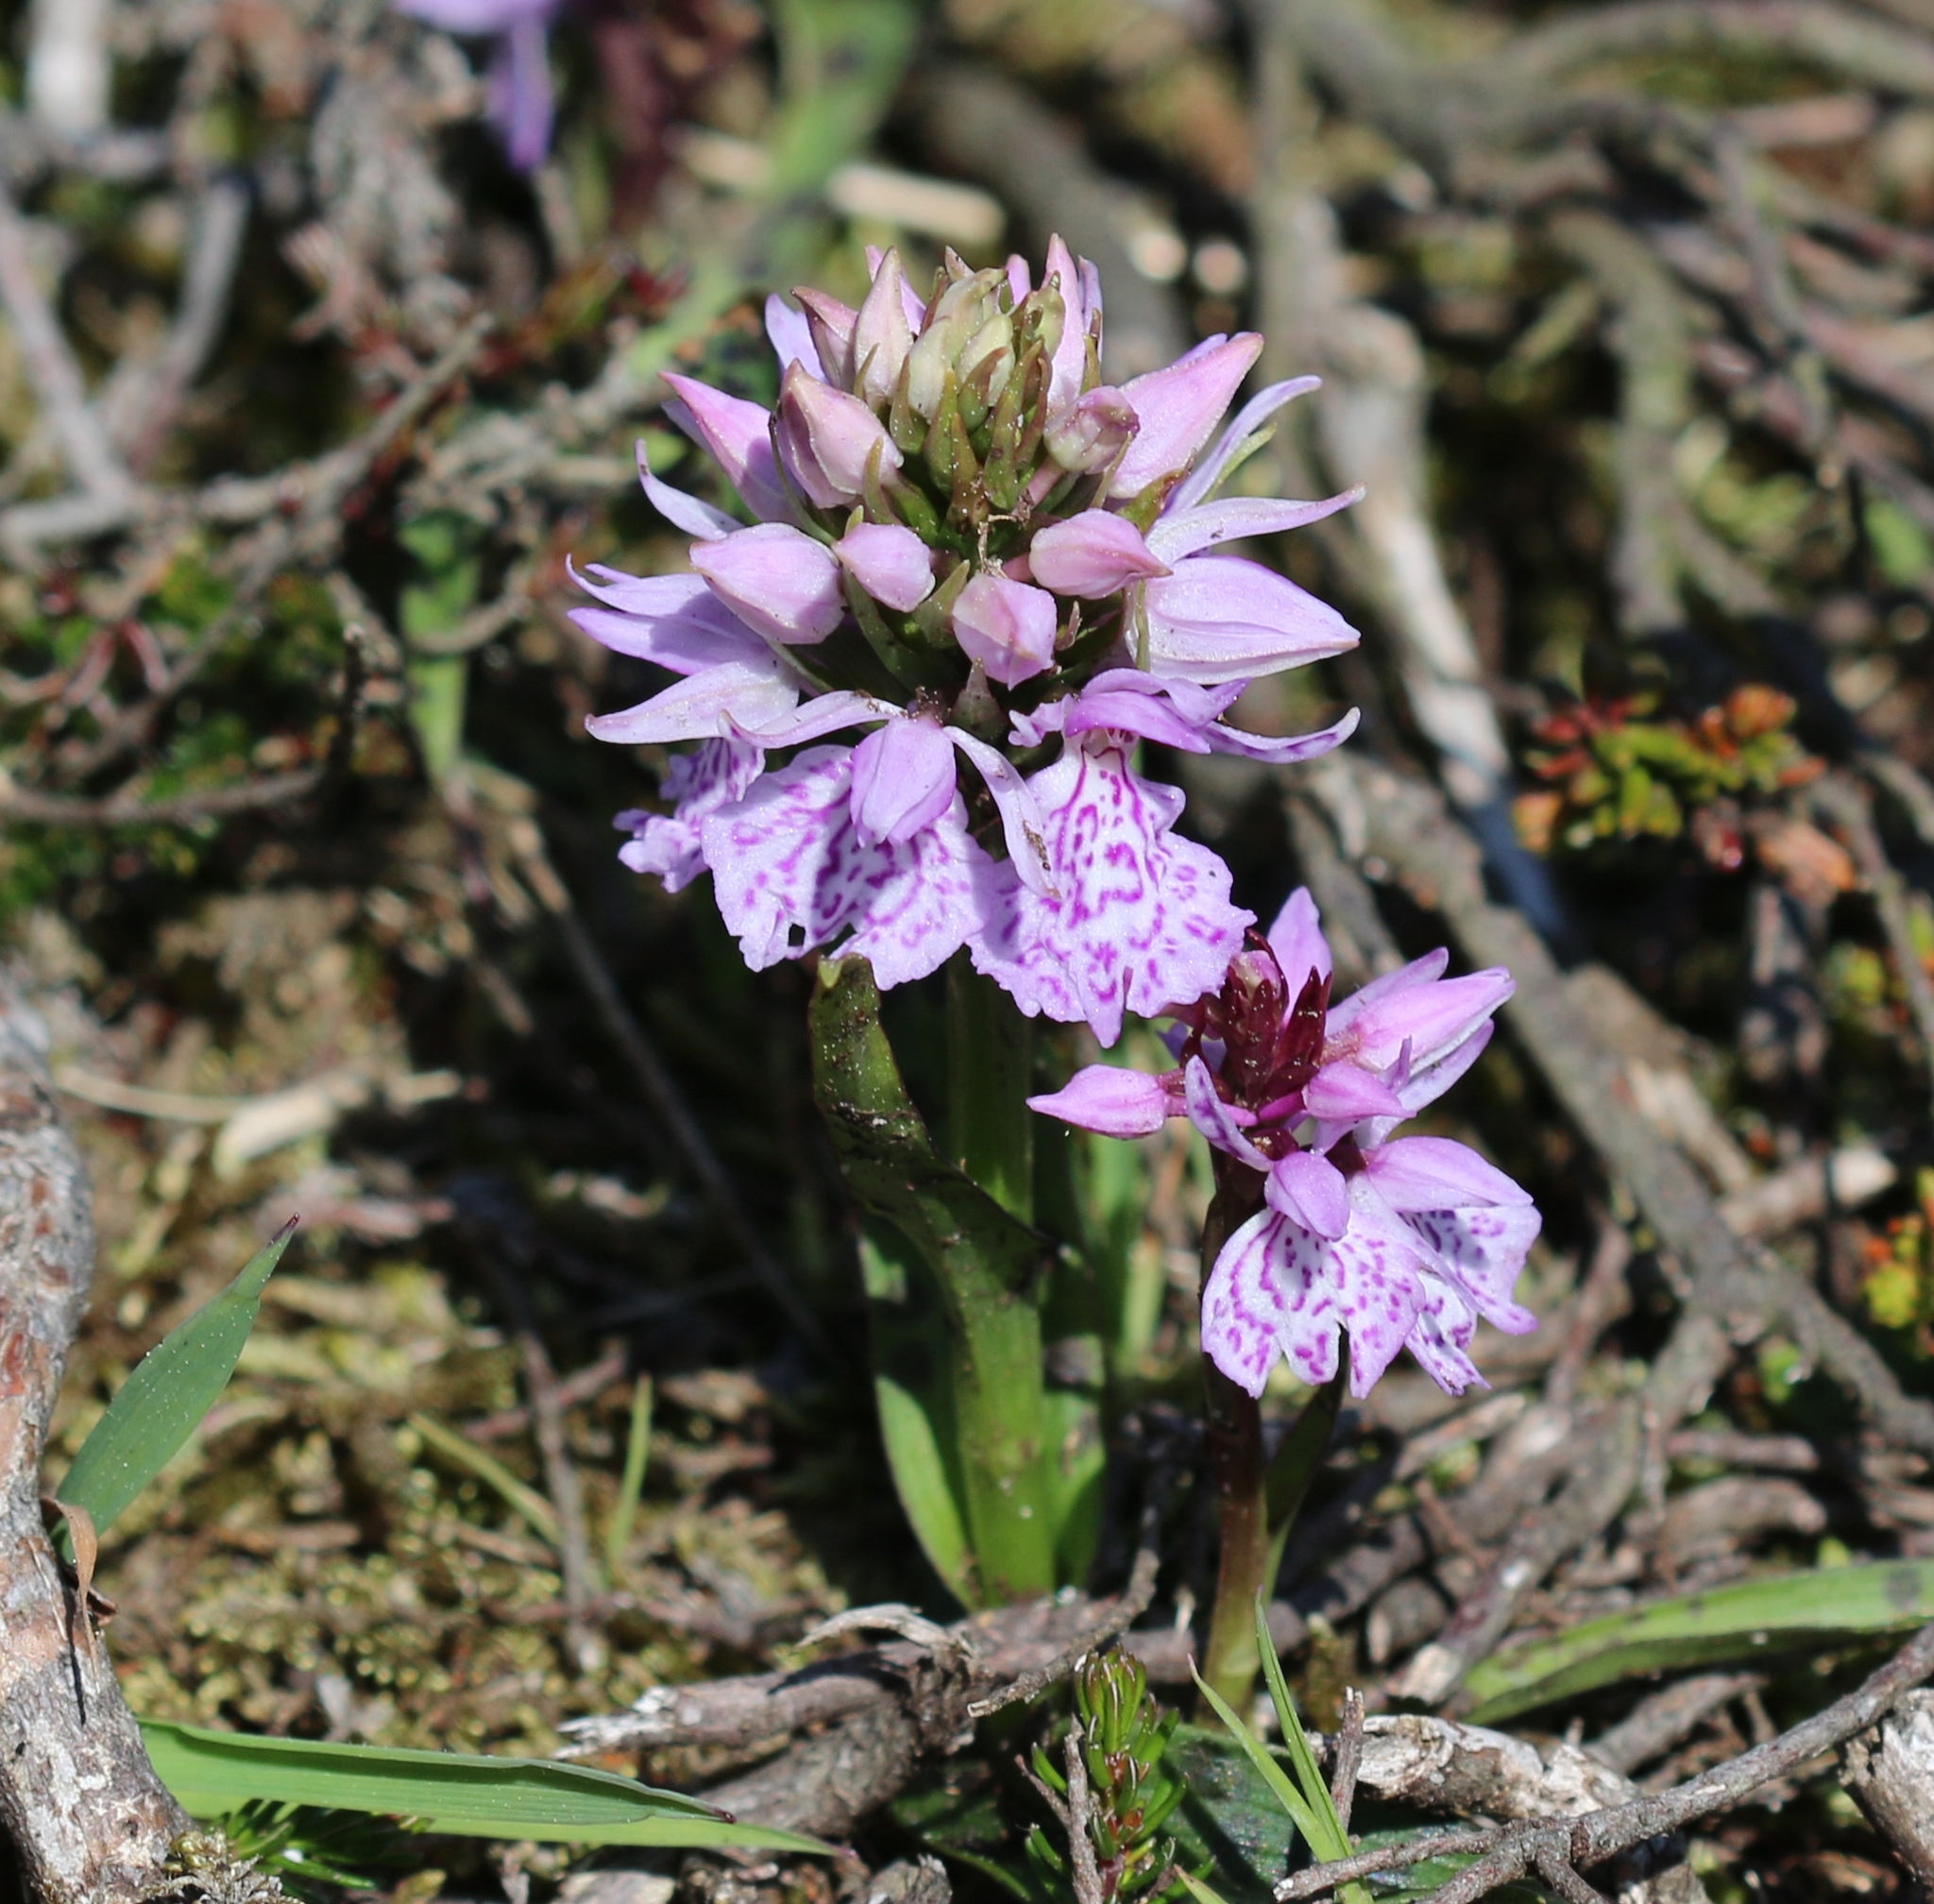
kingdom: Plantae
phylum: Tracheophyta
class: Liliopsida
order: Asparagales
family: Orchidaceae
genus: Dactylorhiza
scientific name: Dactylorhiza maculata
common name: Heath spotted-orchid
